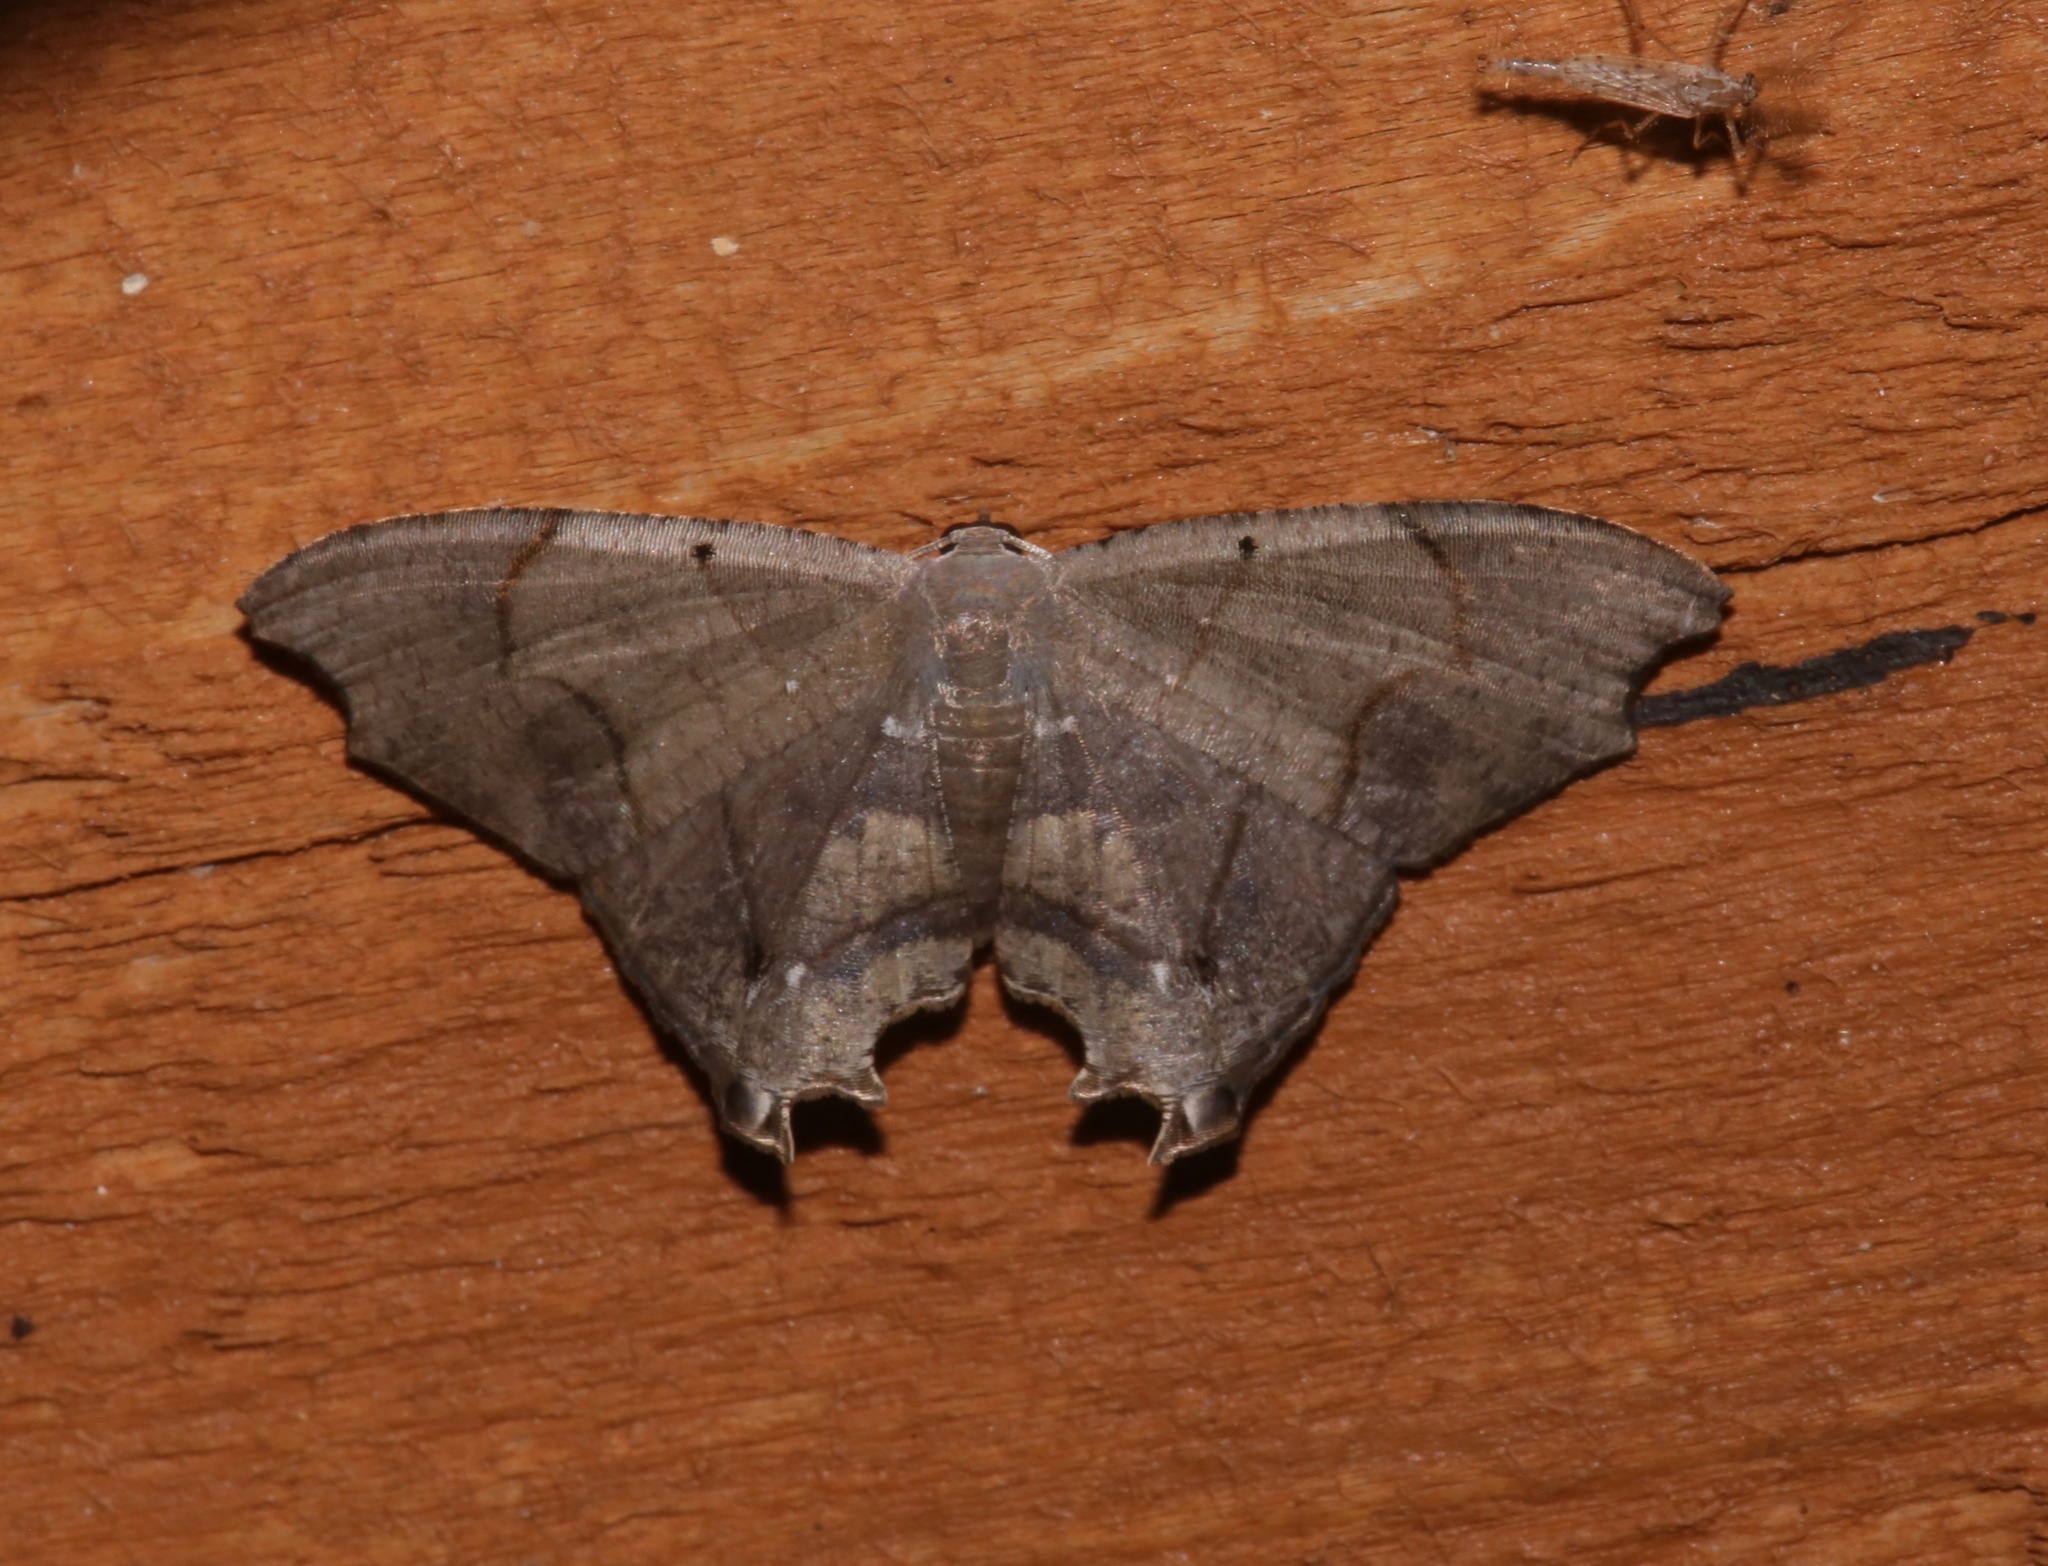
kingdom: Animalia
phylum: Arthropoda
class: Insecta
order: Lepidoptera
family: Uraniidae
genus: Trotorhombia
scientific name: Trotorhombia metachromata
